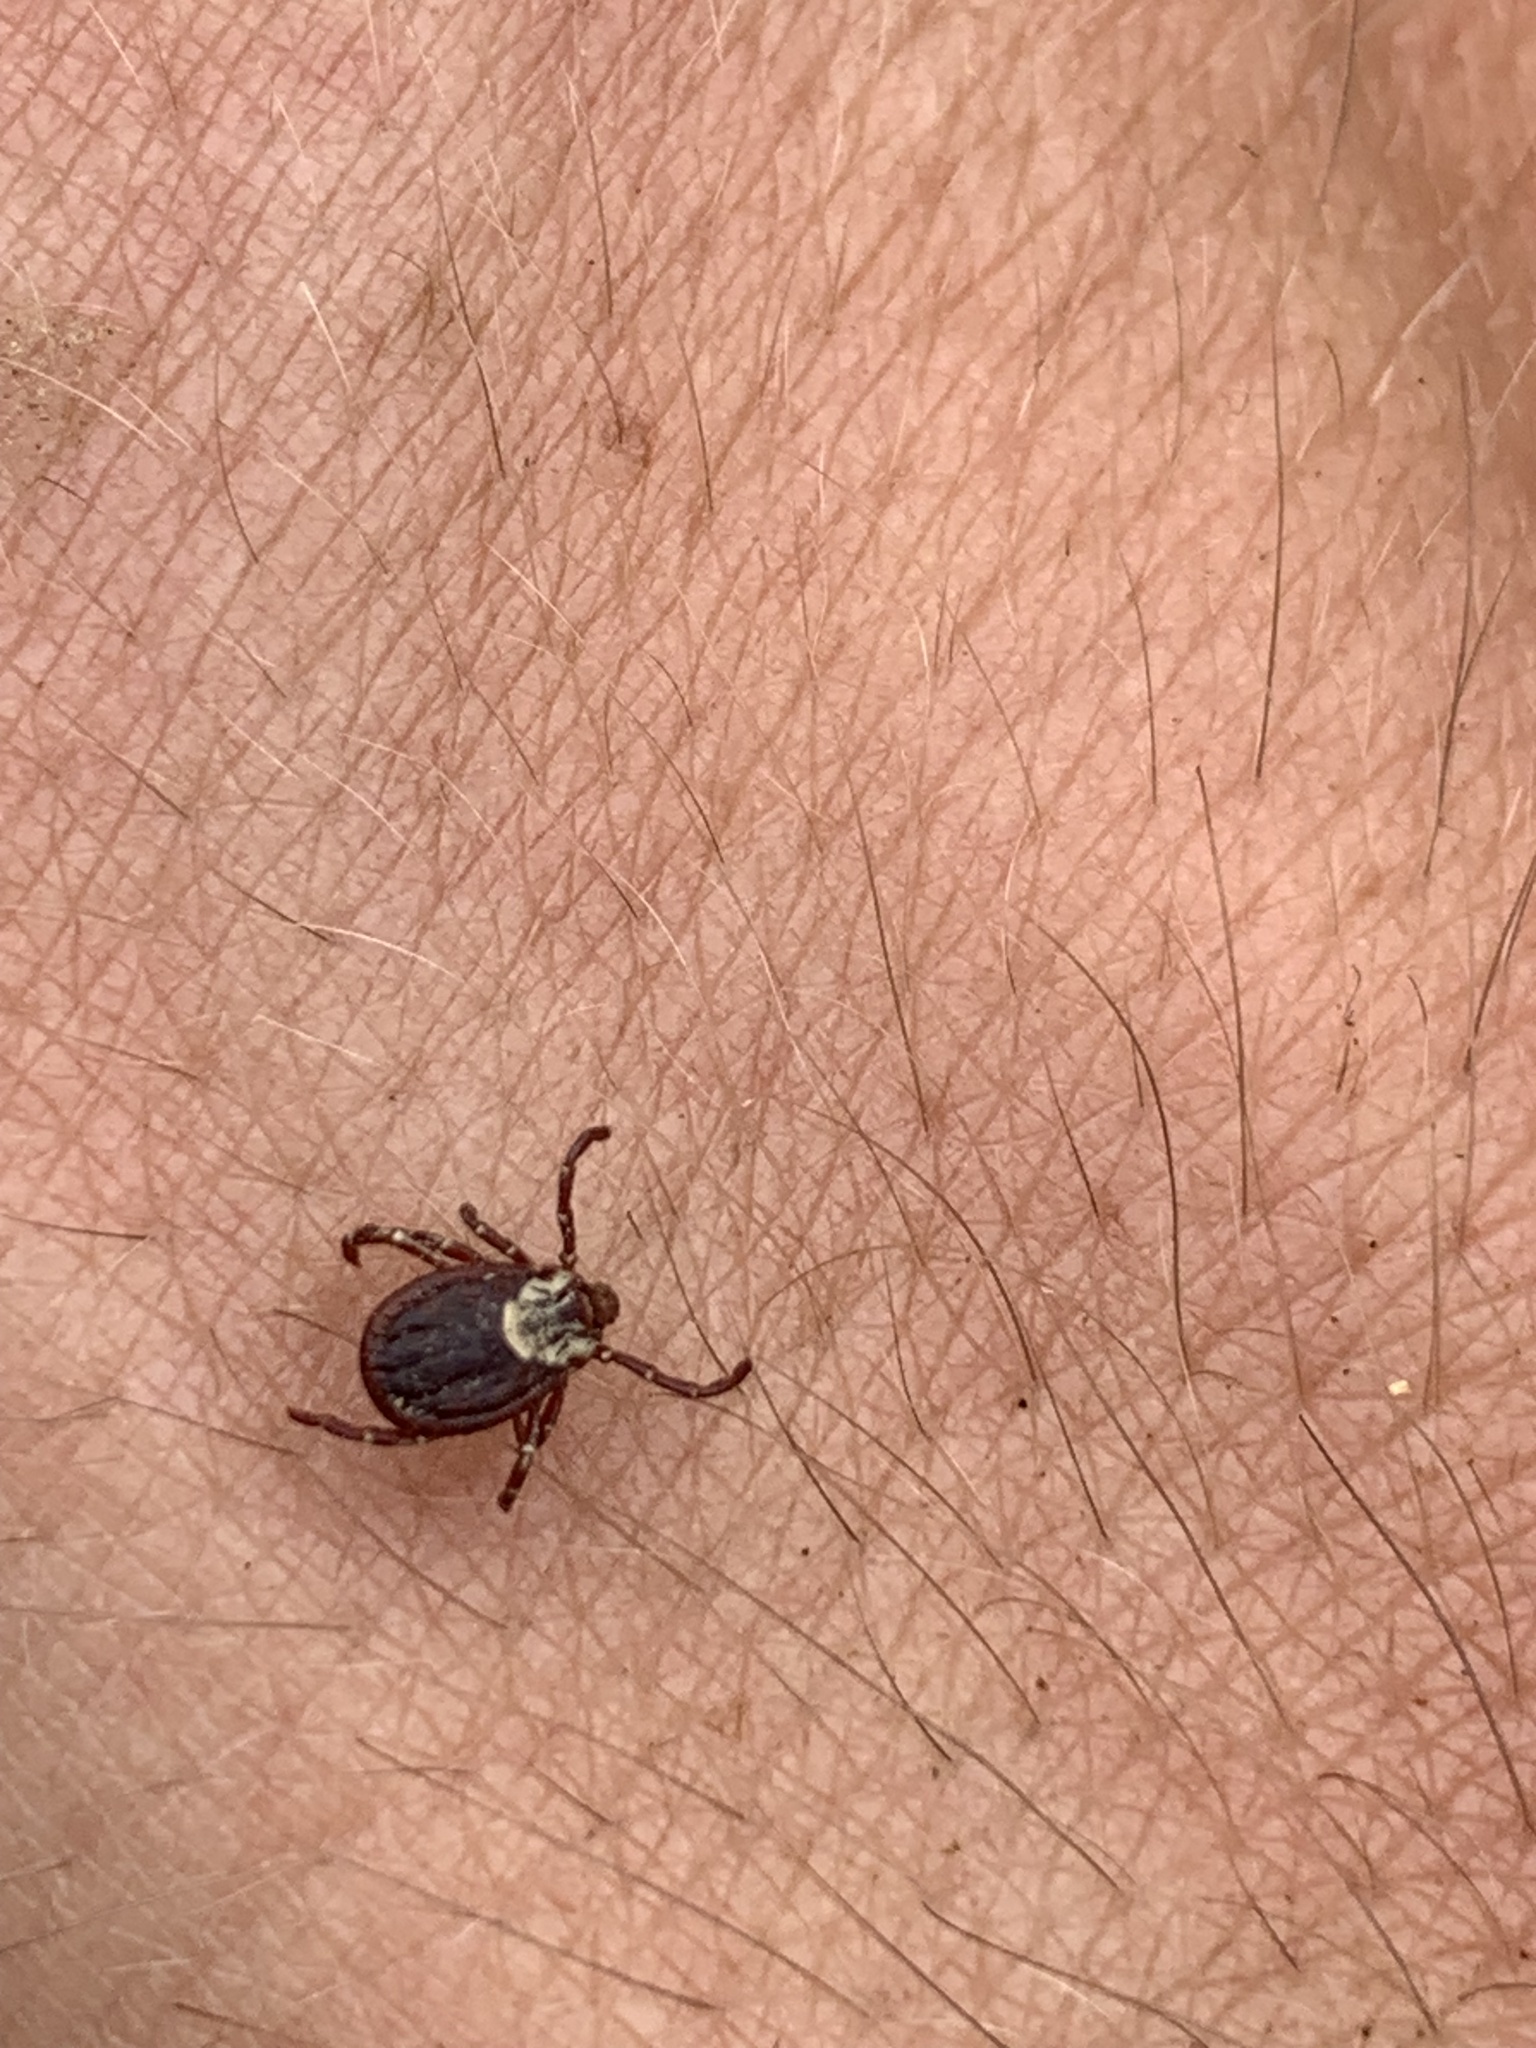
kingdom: Animalia
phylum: Arthropoda
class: Arachnida
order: Ixodida
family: Ixodidae
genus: Dermacentor
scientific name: Dermacentor variabilis
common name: American dog tick
